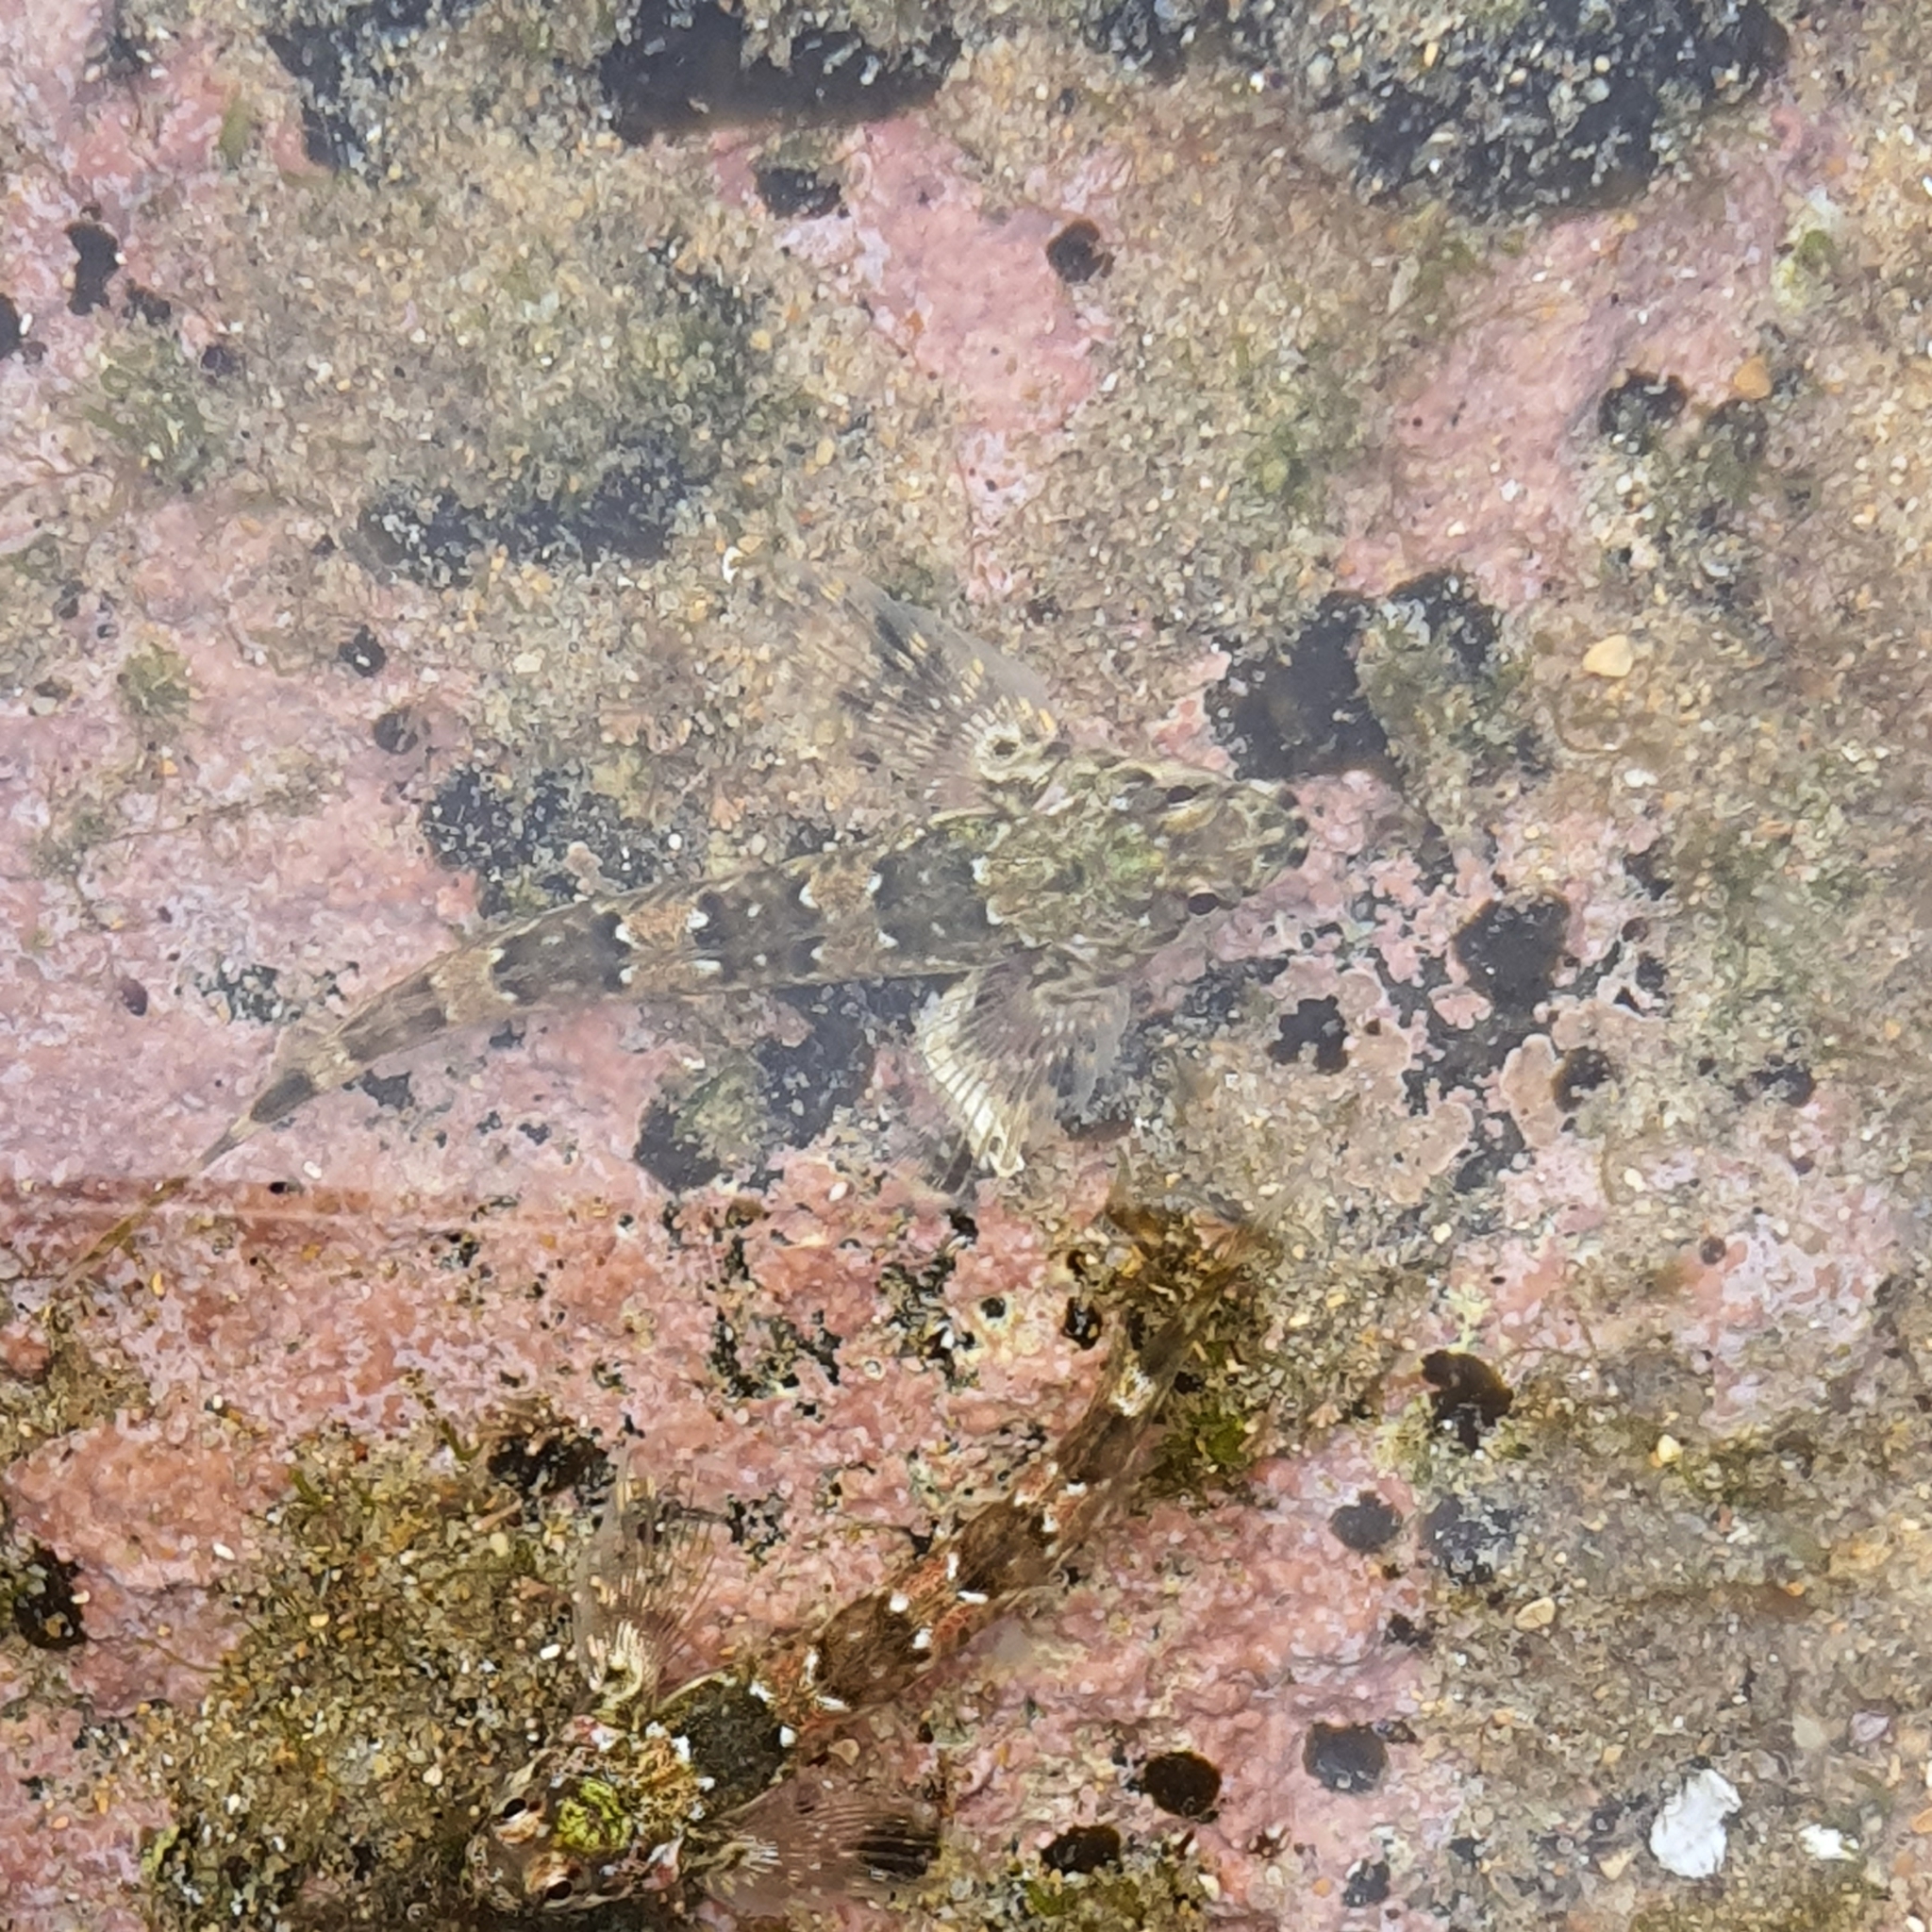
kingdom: Animalia
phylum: Chordata
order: Perciformes
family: Tripterygiidae
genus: Lepidoblennius
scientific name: Lepidoblennius haplodactylus
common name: Eastern jumping blenny
